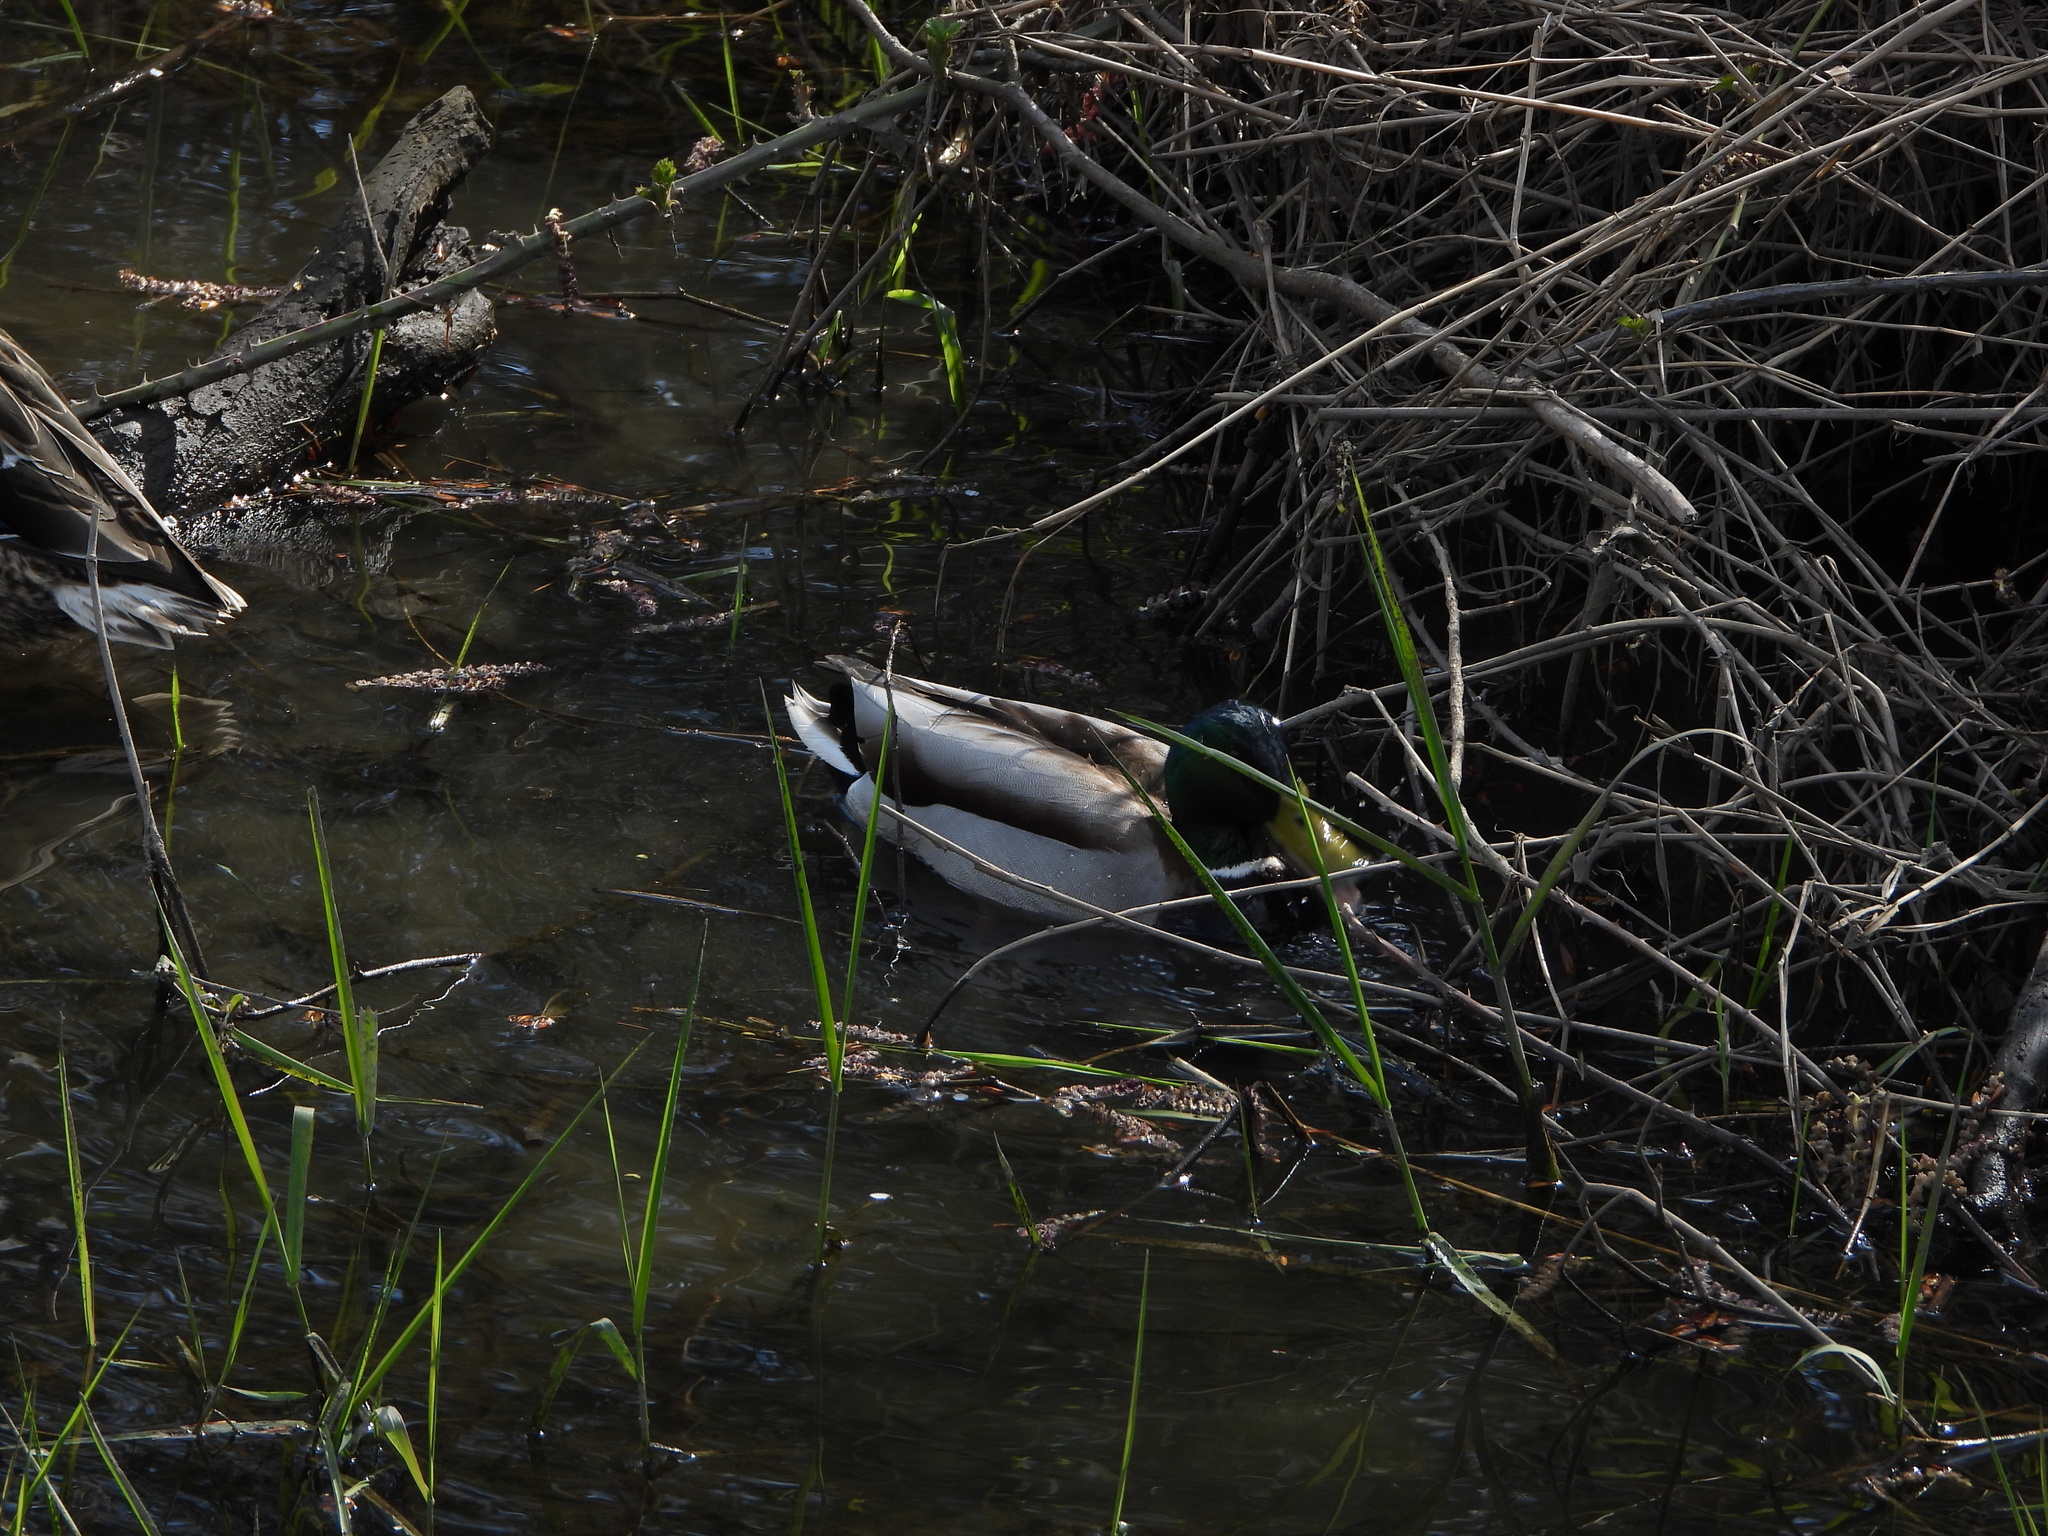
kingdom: Animalia
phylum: Chordata
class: Aves
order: Anseriformes
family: Anatidae
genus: Anas
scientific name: Anas platyrhynchos
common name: Mallard
